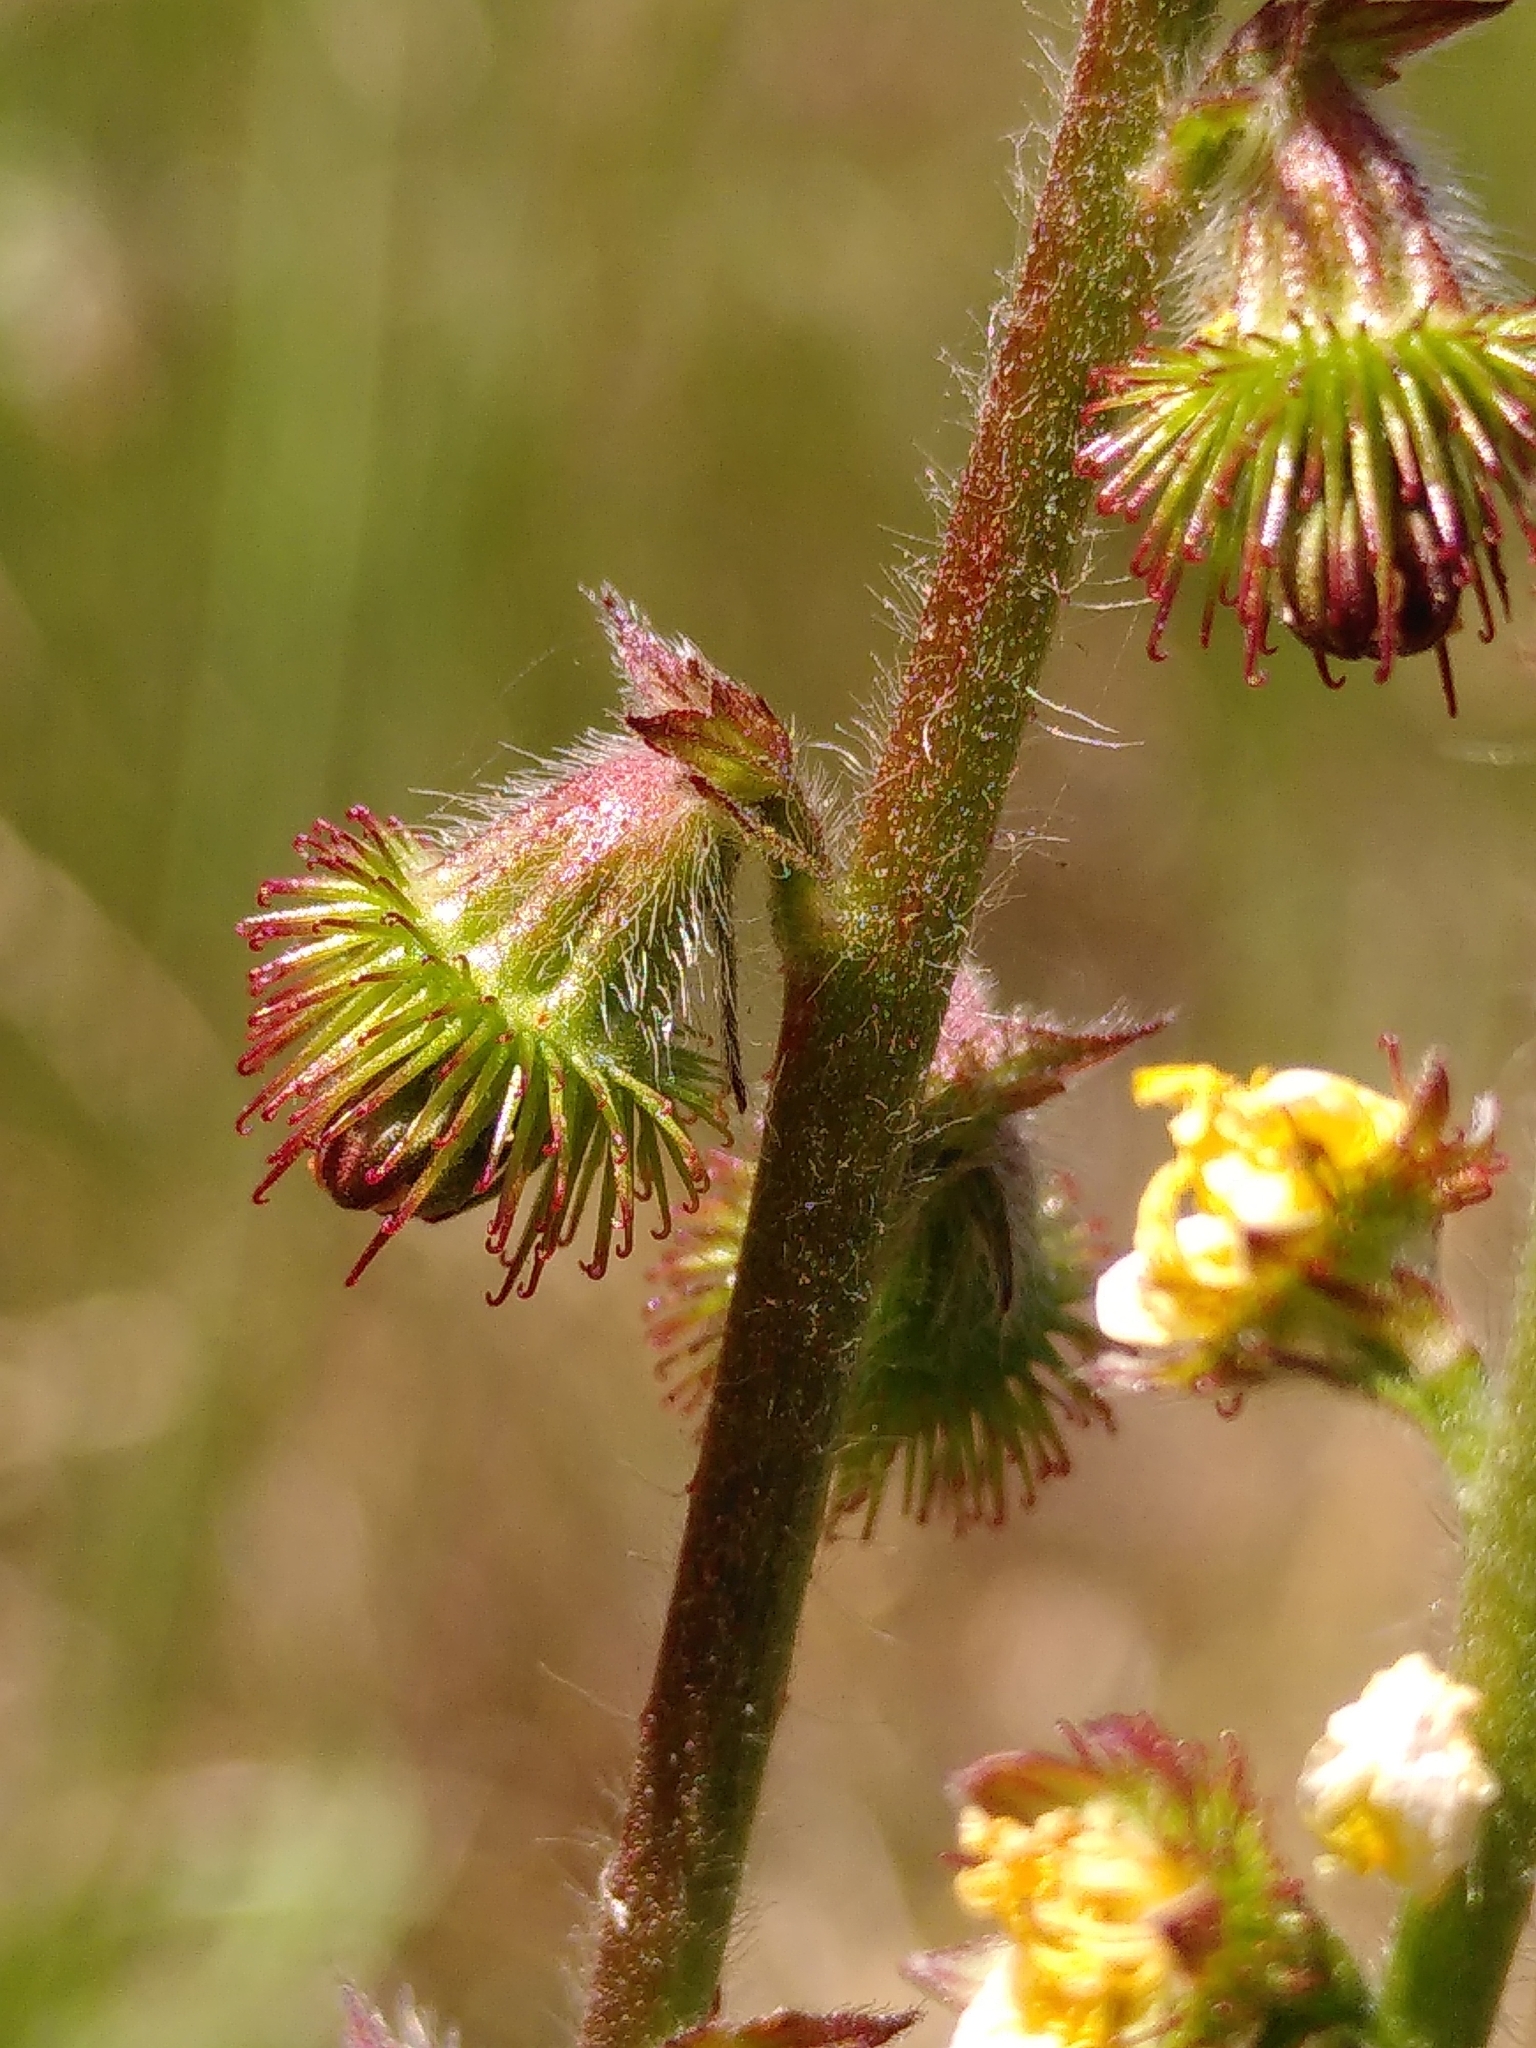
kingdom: Plantae
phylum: Tracheophyta
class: Magnoliopsida
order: Rosales
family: Rosaceae
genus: Agrimonia
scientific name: Agrimonia eupatoria
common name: Agrimony
